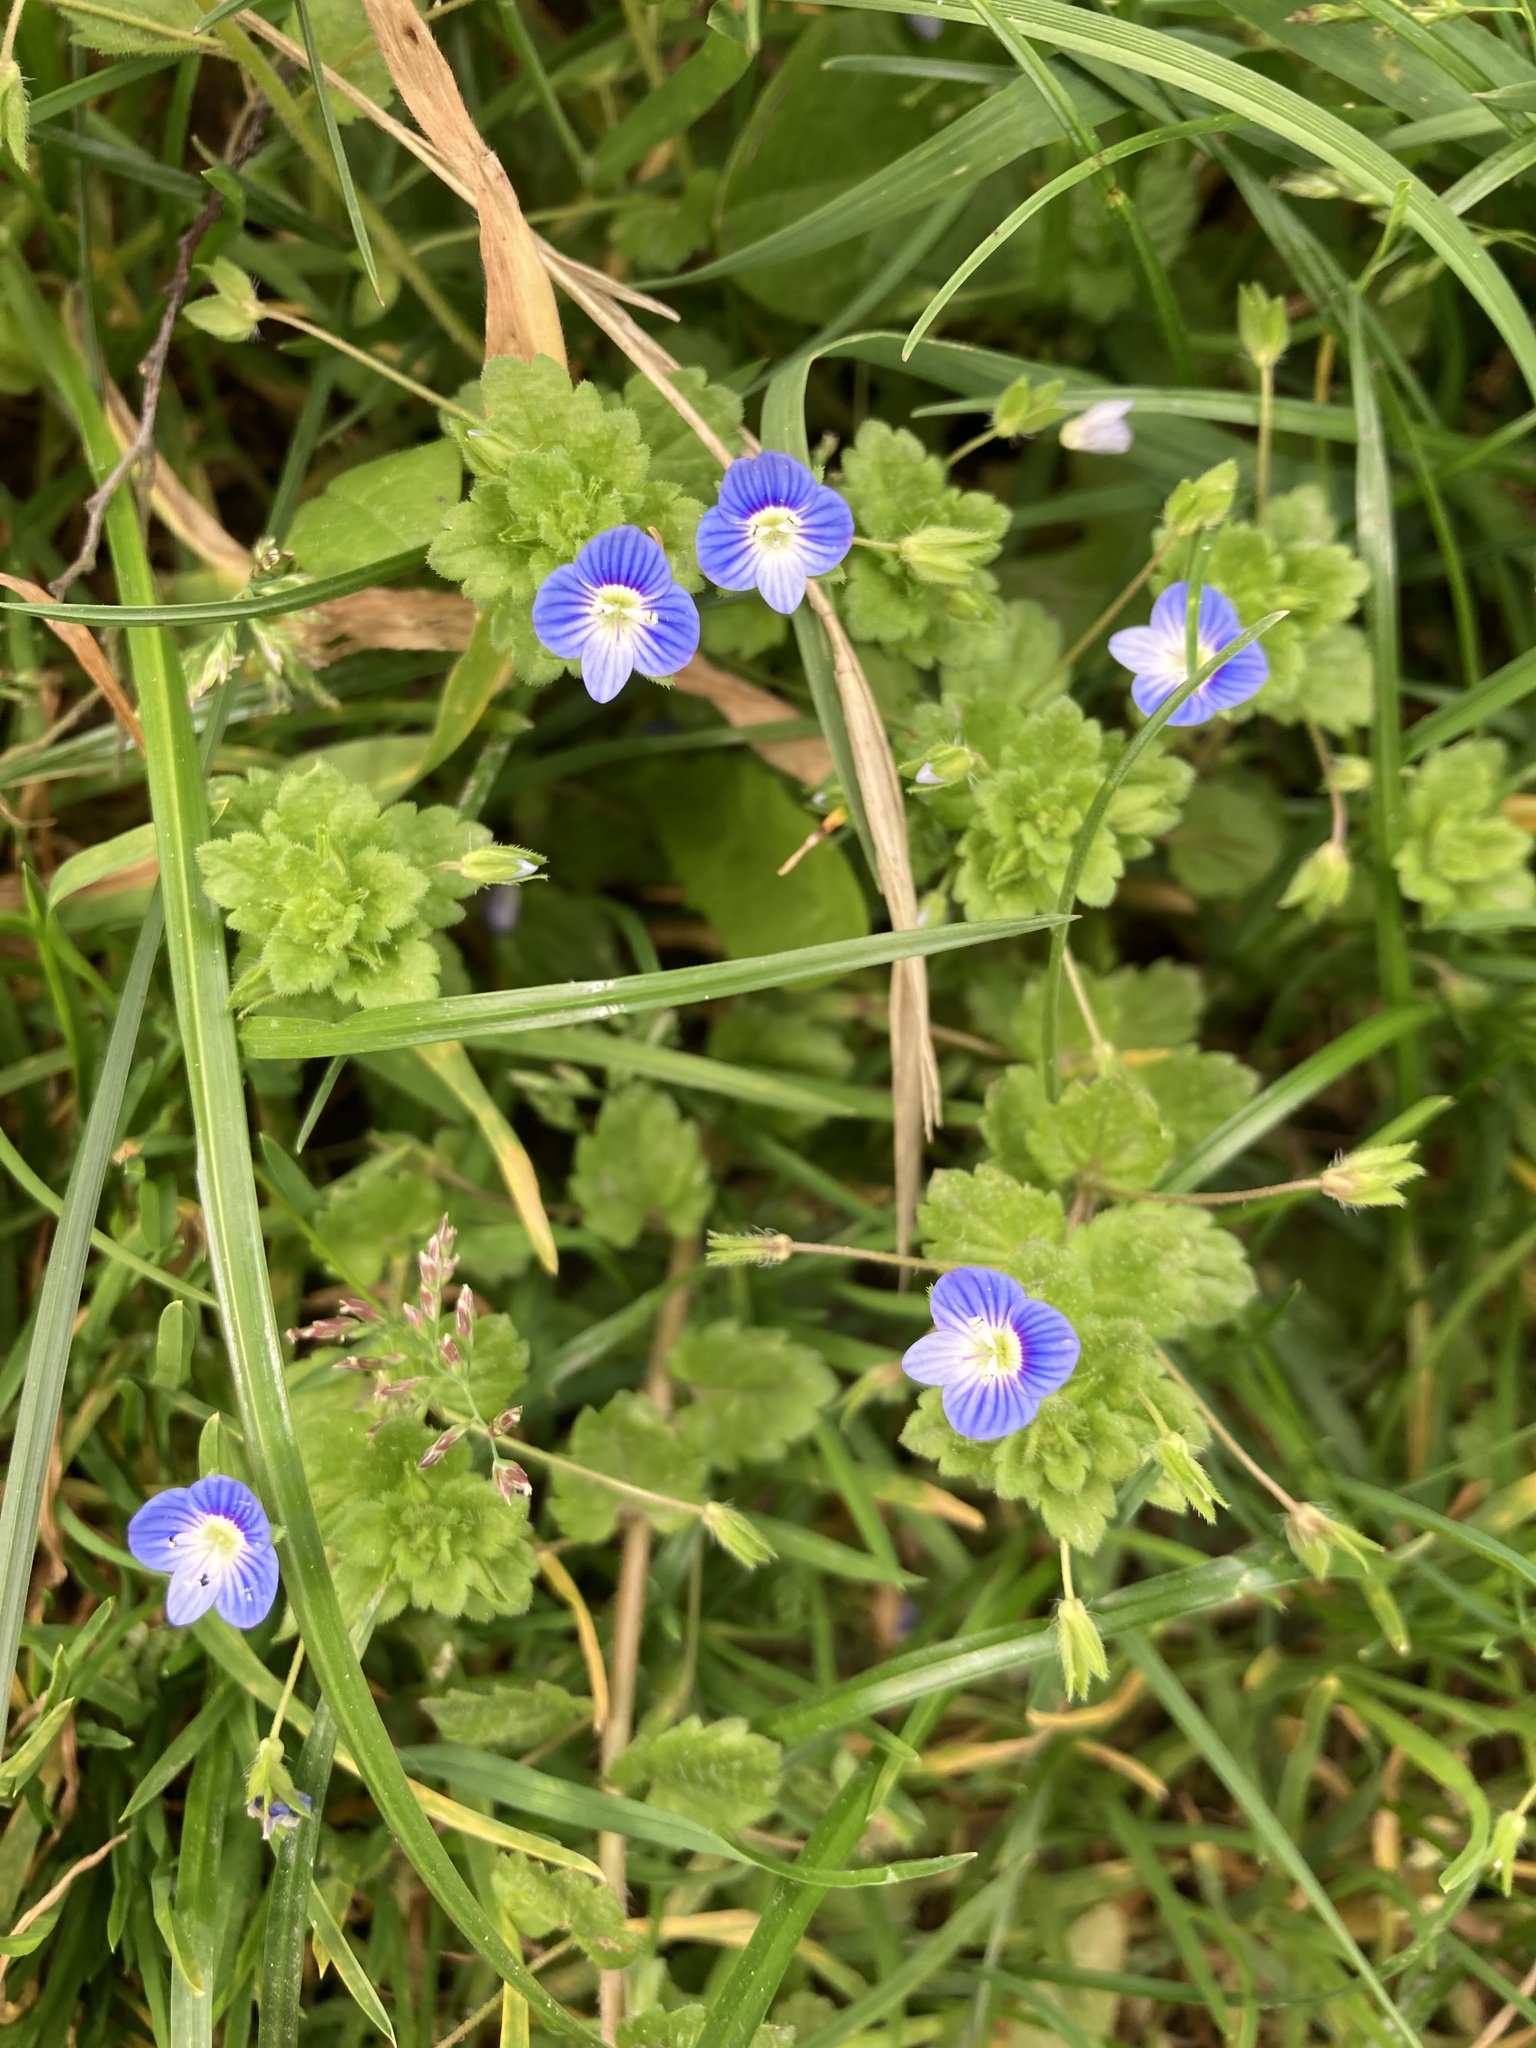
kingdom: Plantae
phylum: Tracheophyta
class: Magnoliopsida
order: Lamiales
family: Plantaginaceae
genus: Veronica
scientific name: Veronica persica
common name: Common field-speedwell
